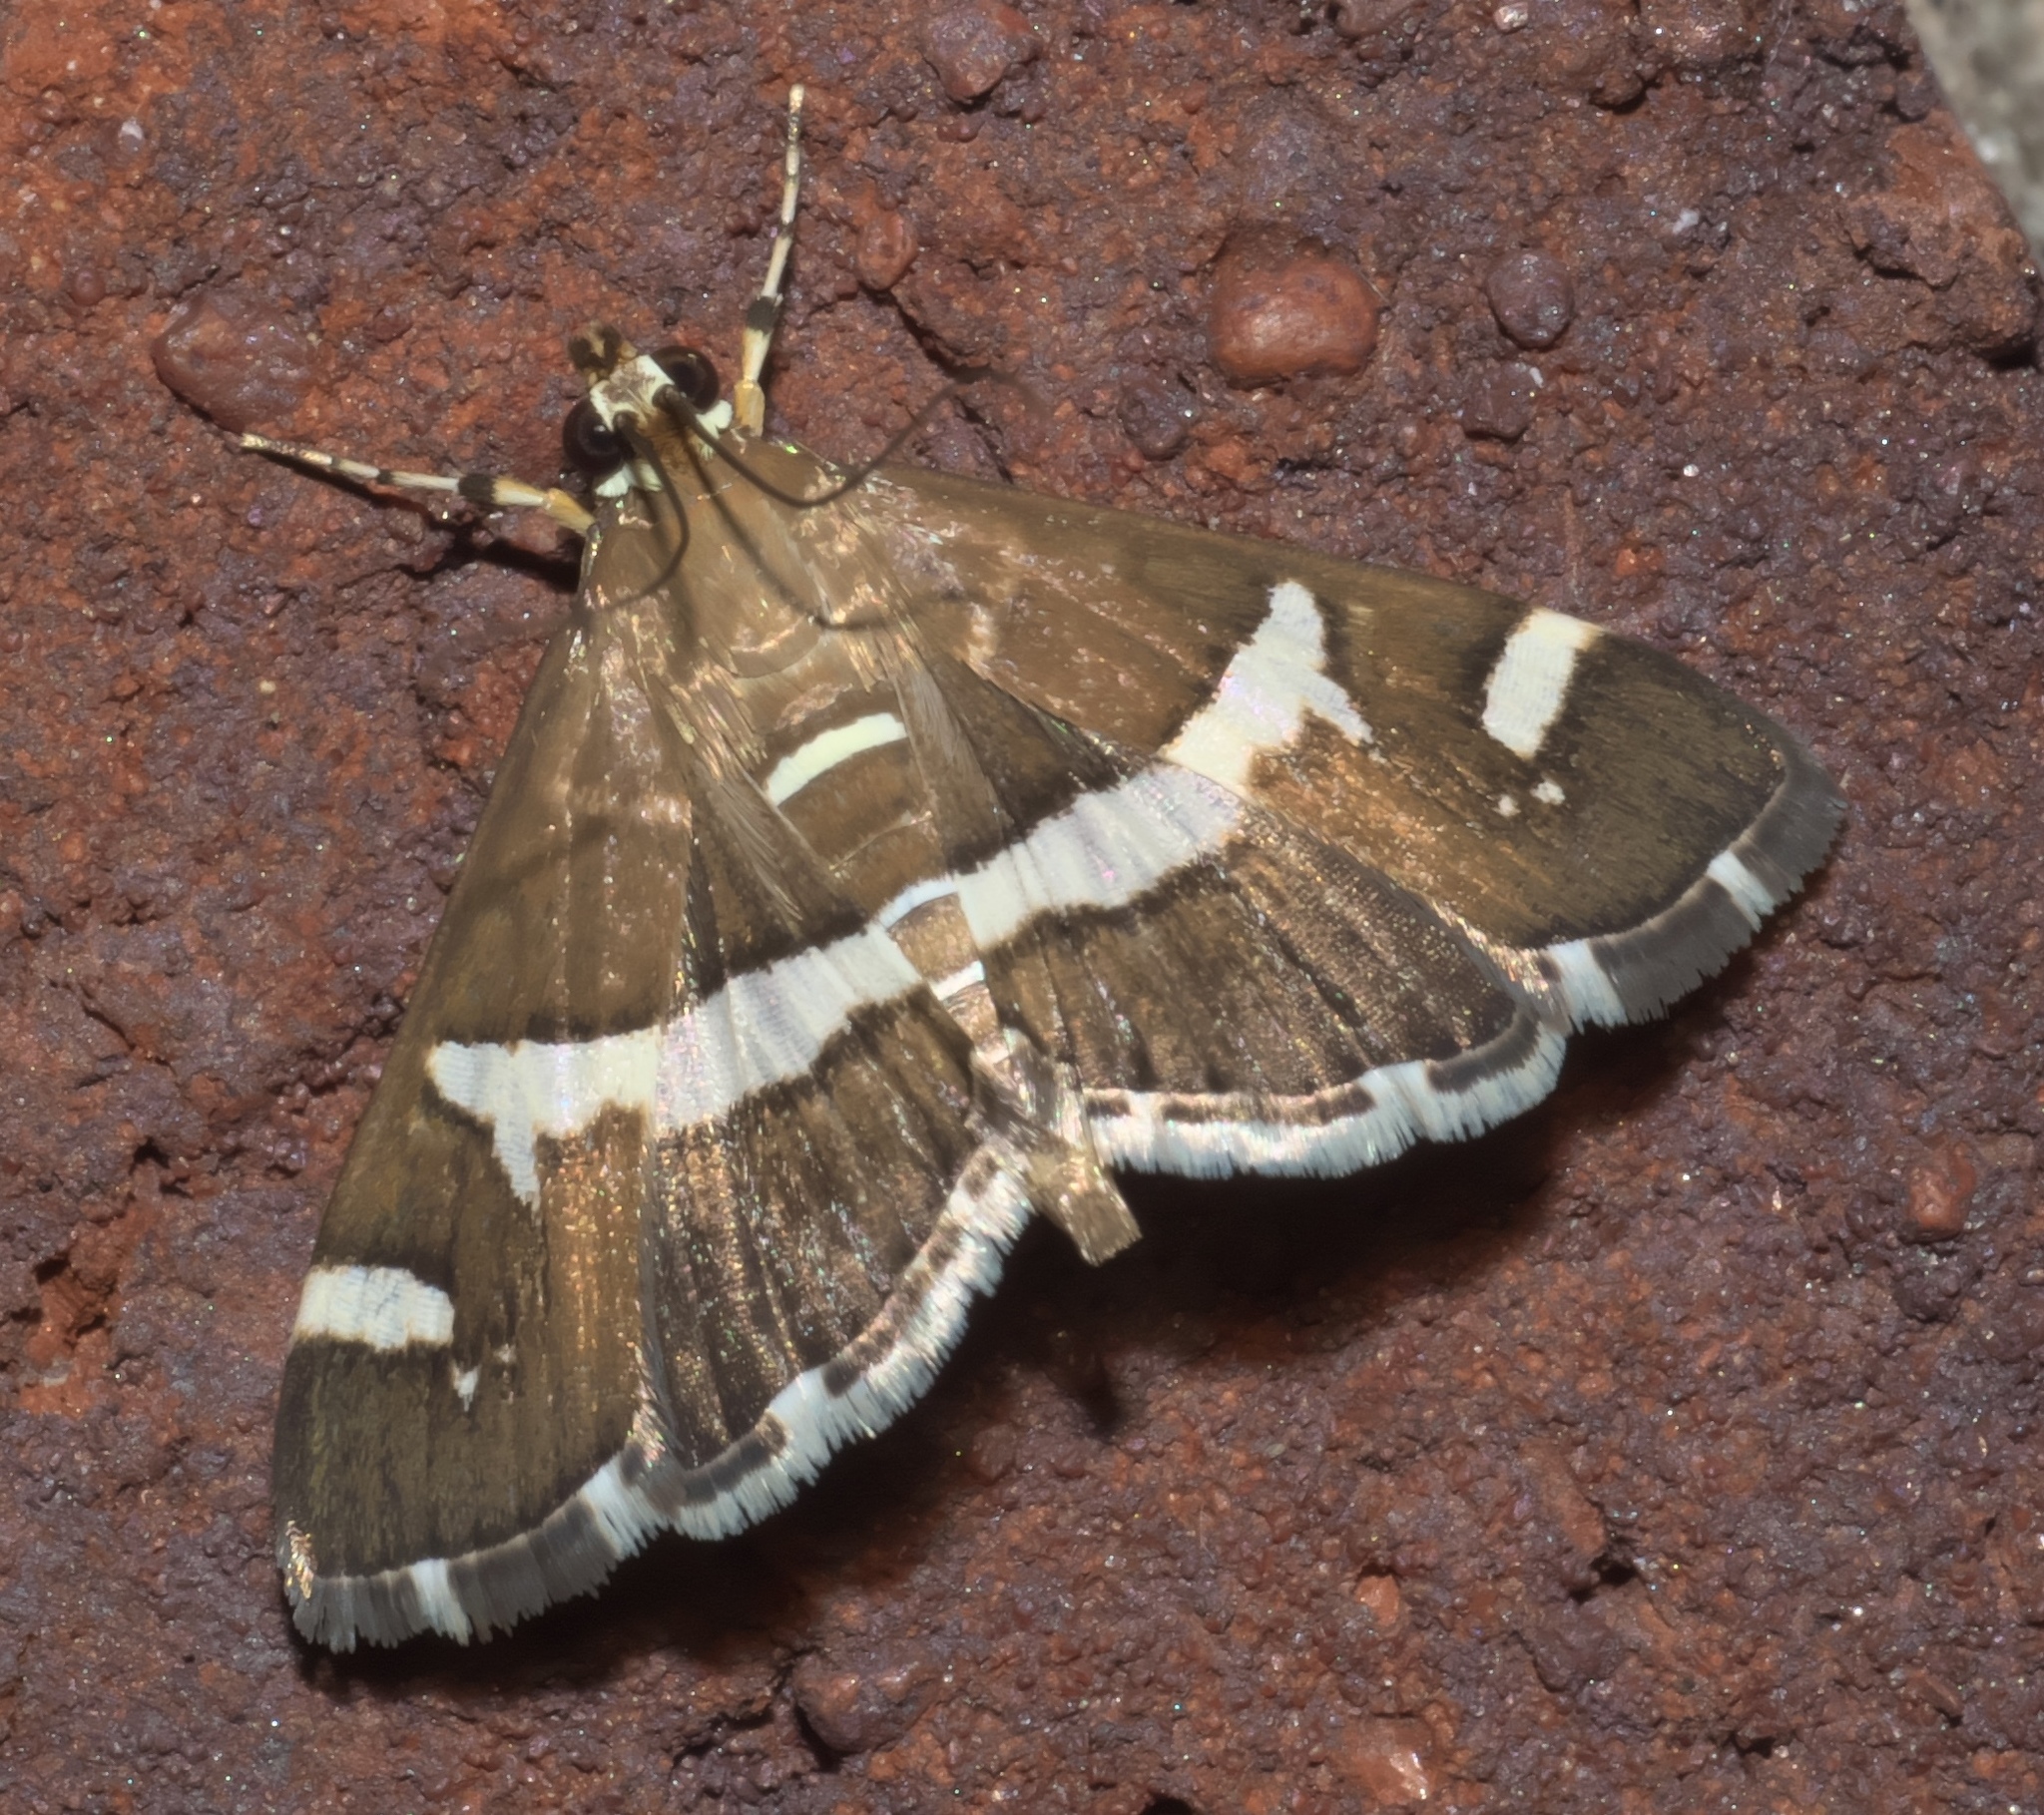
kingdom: Animalia
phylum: Arthropoda
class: Insecta
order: Lepidoptera
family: Crambidae
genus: Spoladea
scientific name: Spoladea recurvalis
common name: Beet webworm moth
